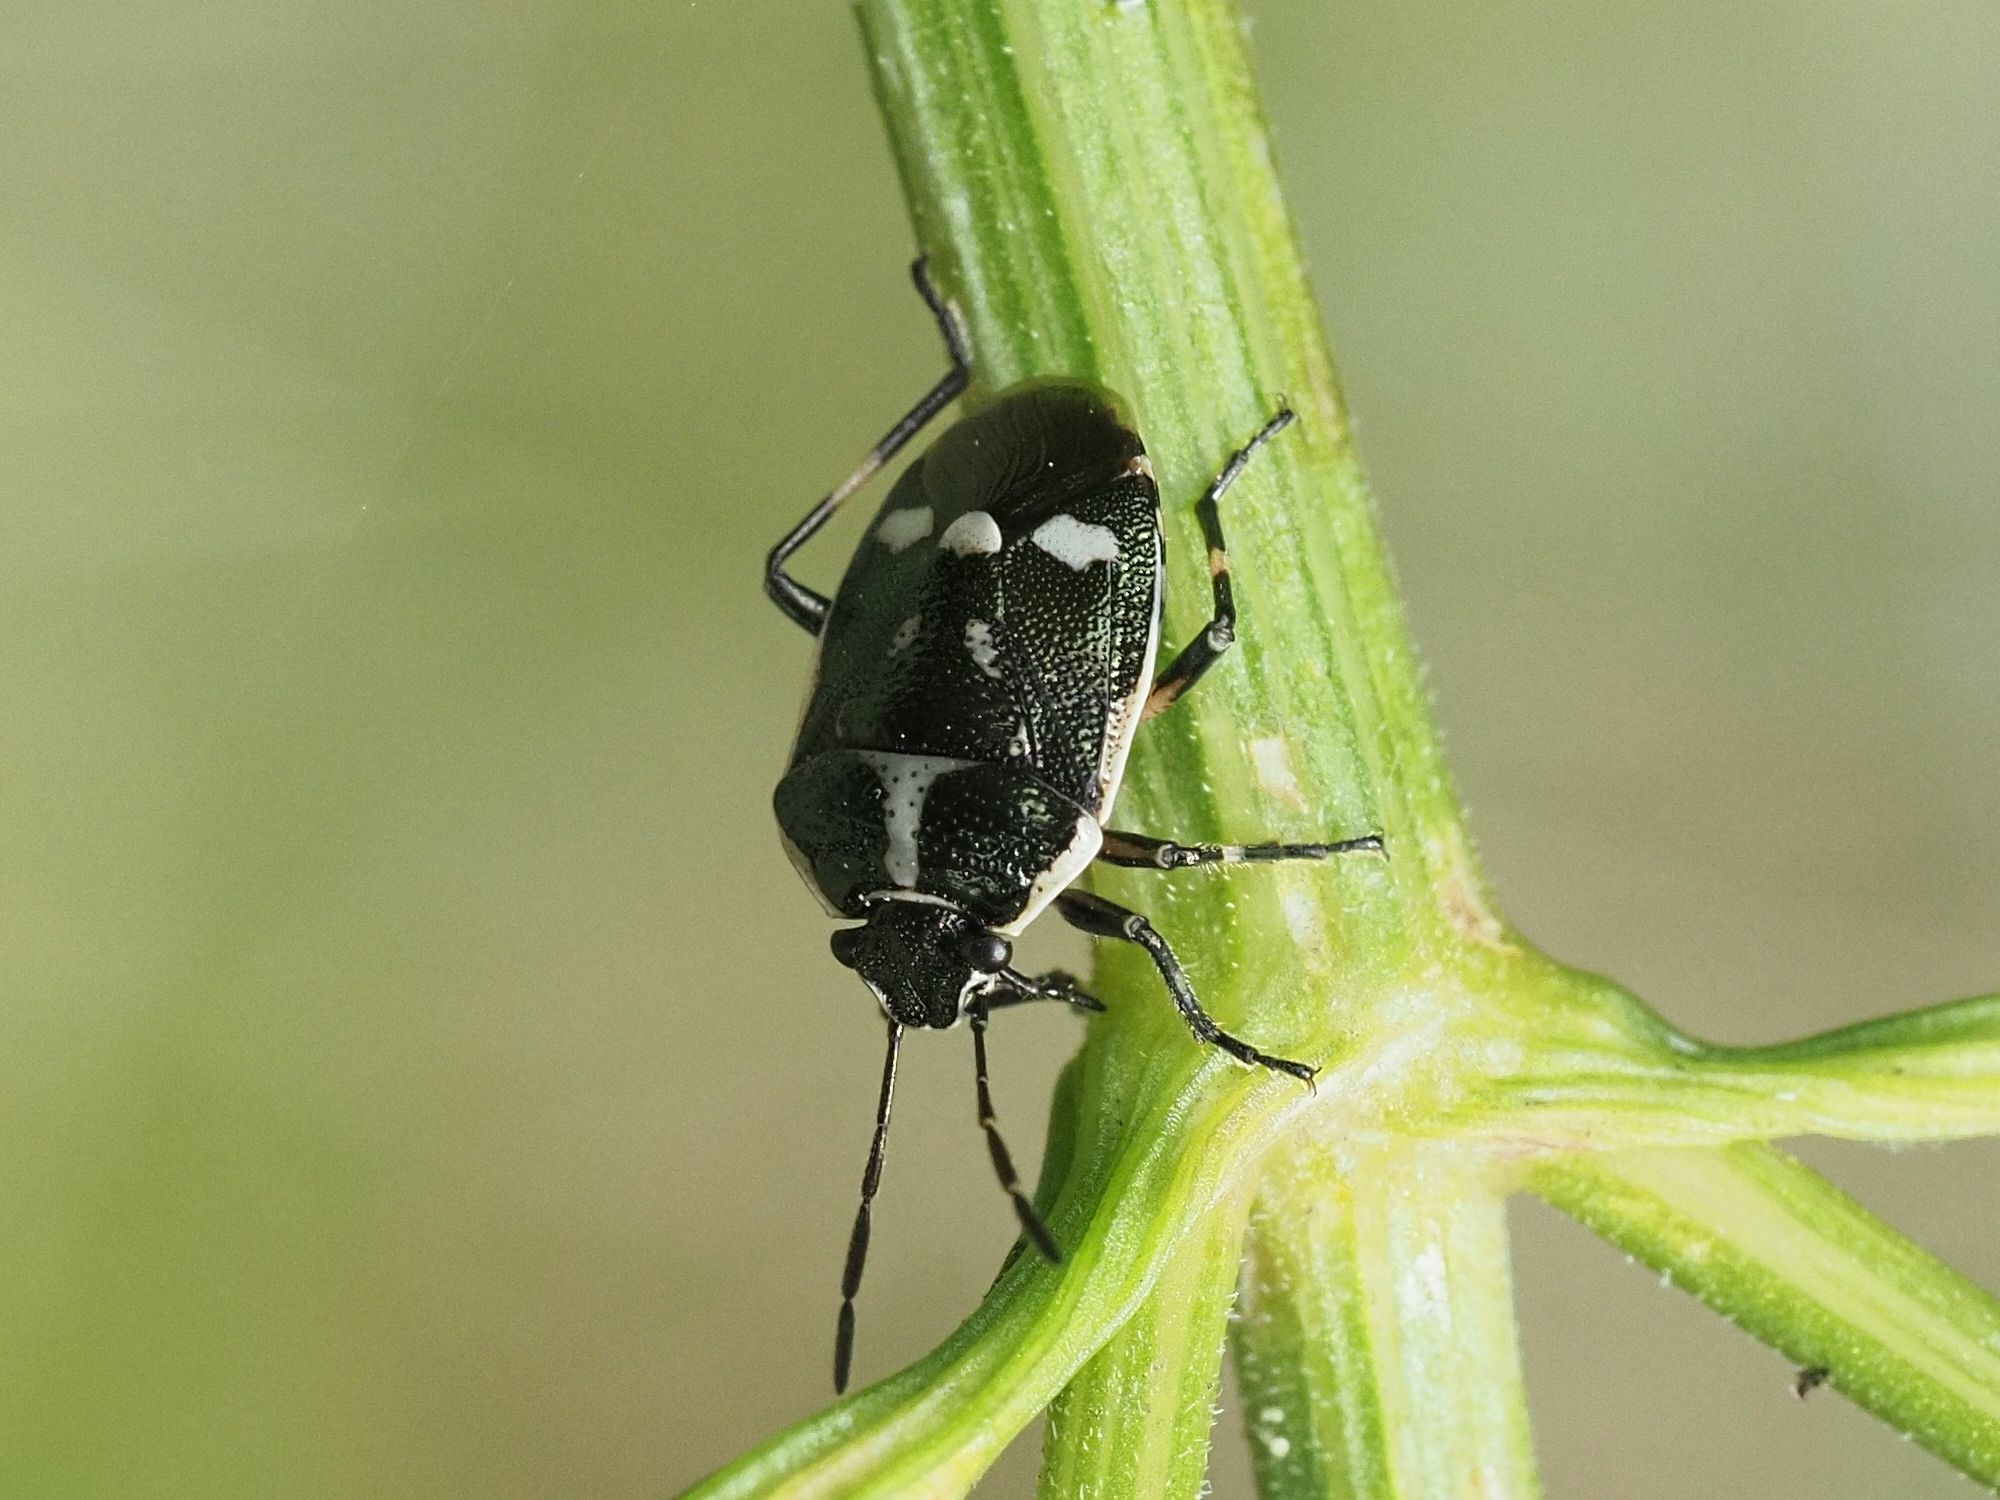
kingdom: Animalia
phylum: Arthropoda
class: Insecta
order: Hemiptera
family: Pentatomidae
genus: Eurydema
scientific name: Eurydema oleracea
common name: Cabbage bug
